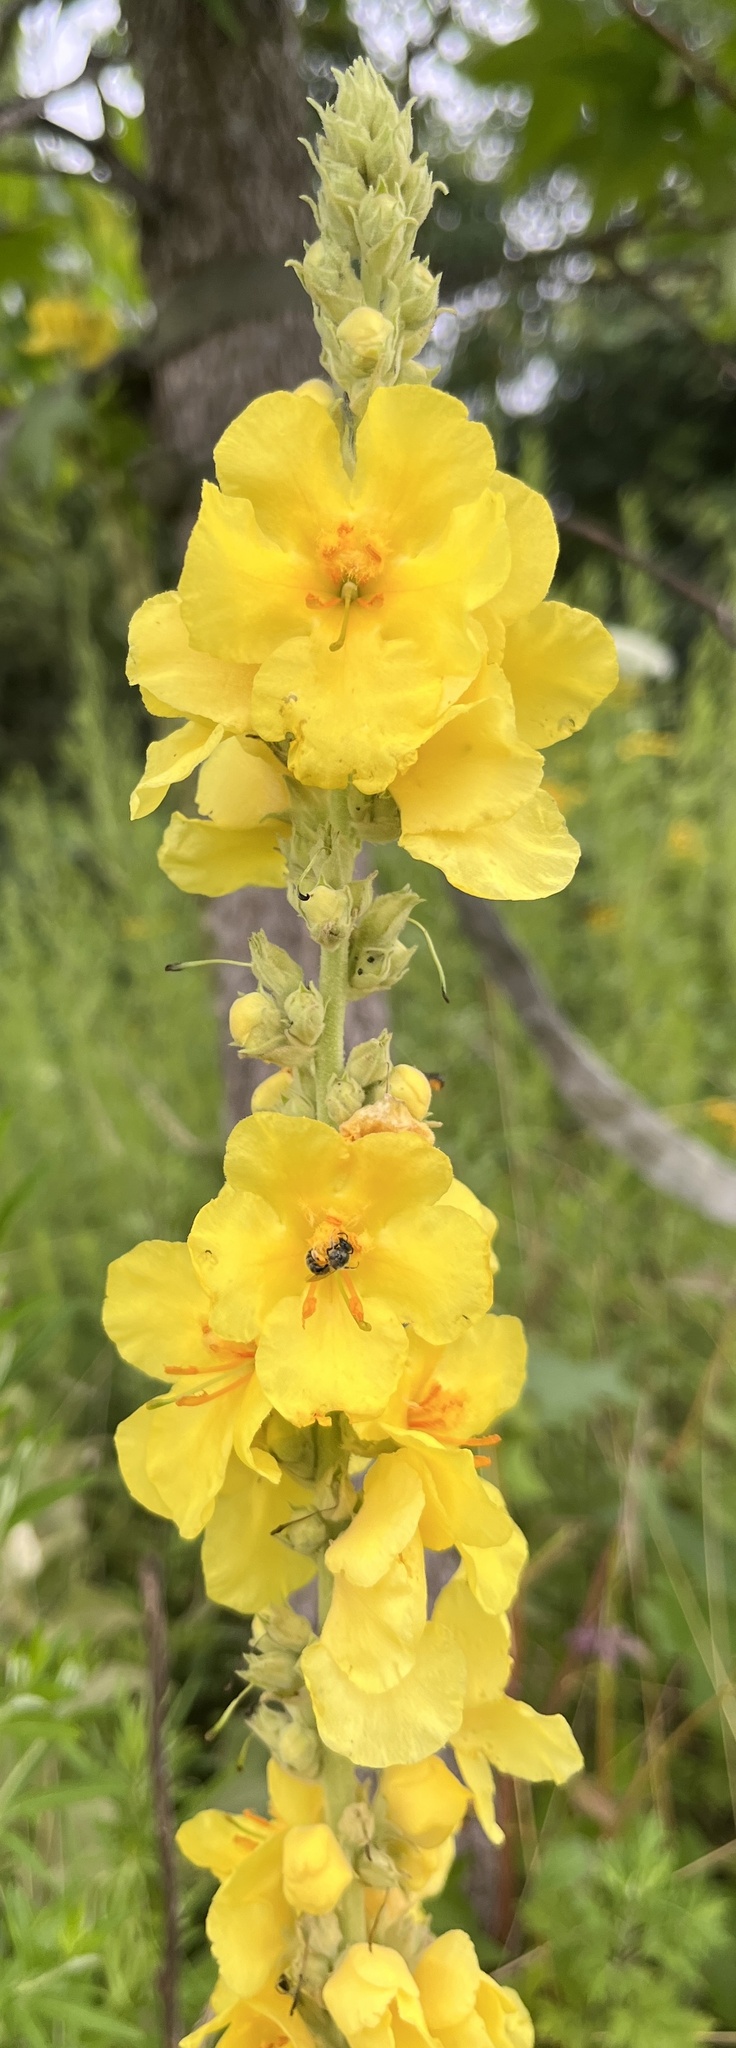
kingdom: Plantae
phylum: Tracheophyta
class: Magnoliopsida
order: Lamiales
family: Scrophulariaceae
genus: Verbascum
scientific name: Verbascum phlomoides
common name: Orange mullein
